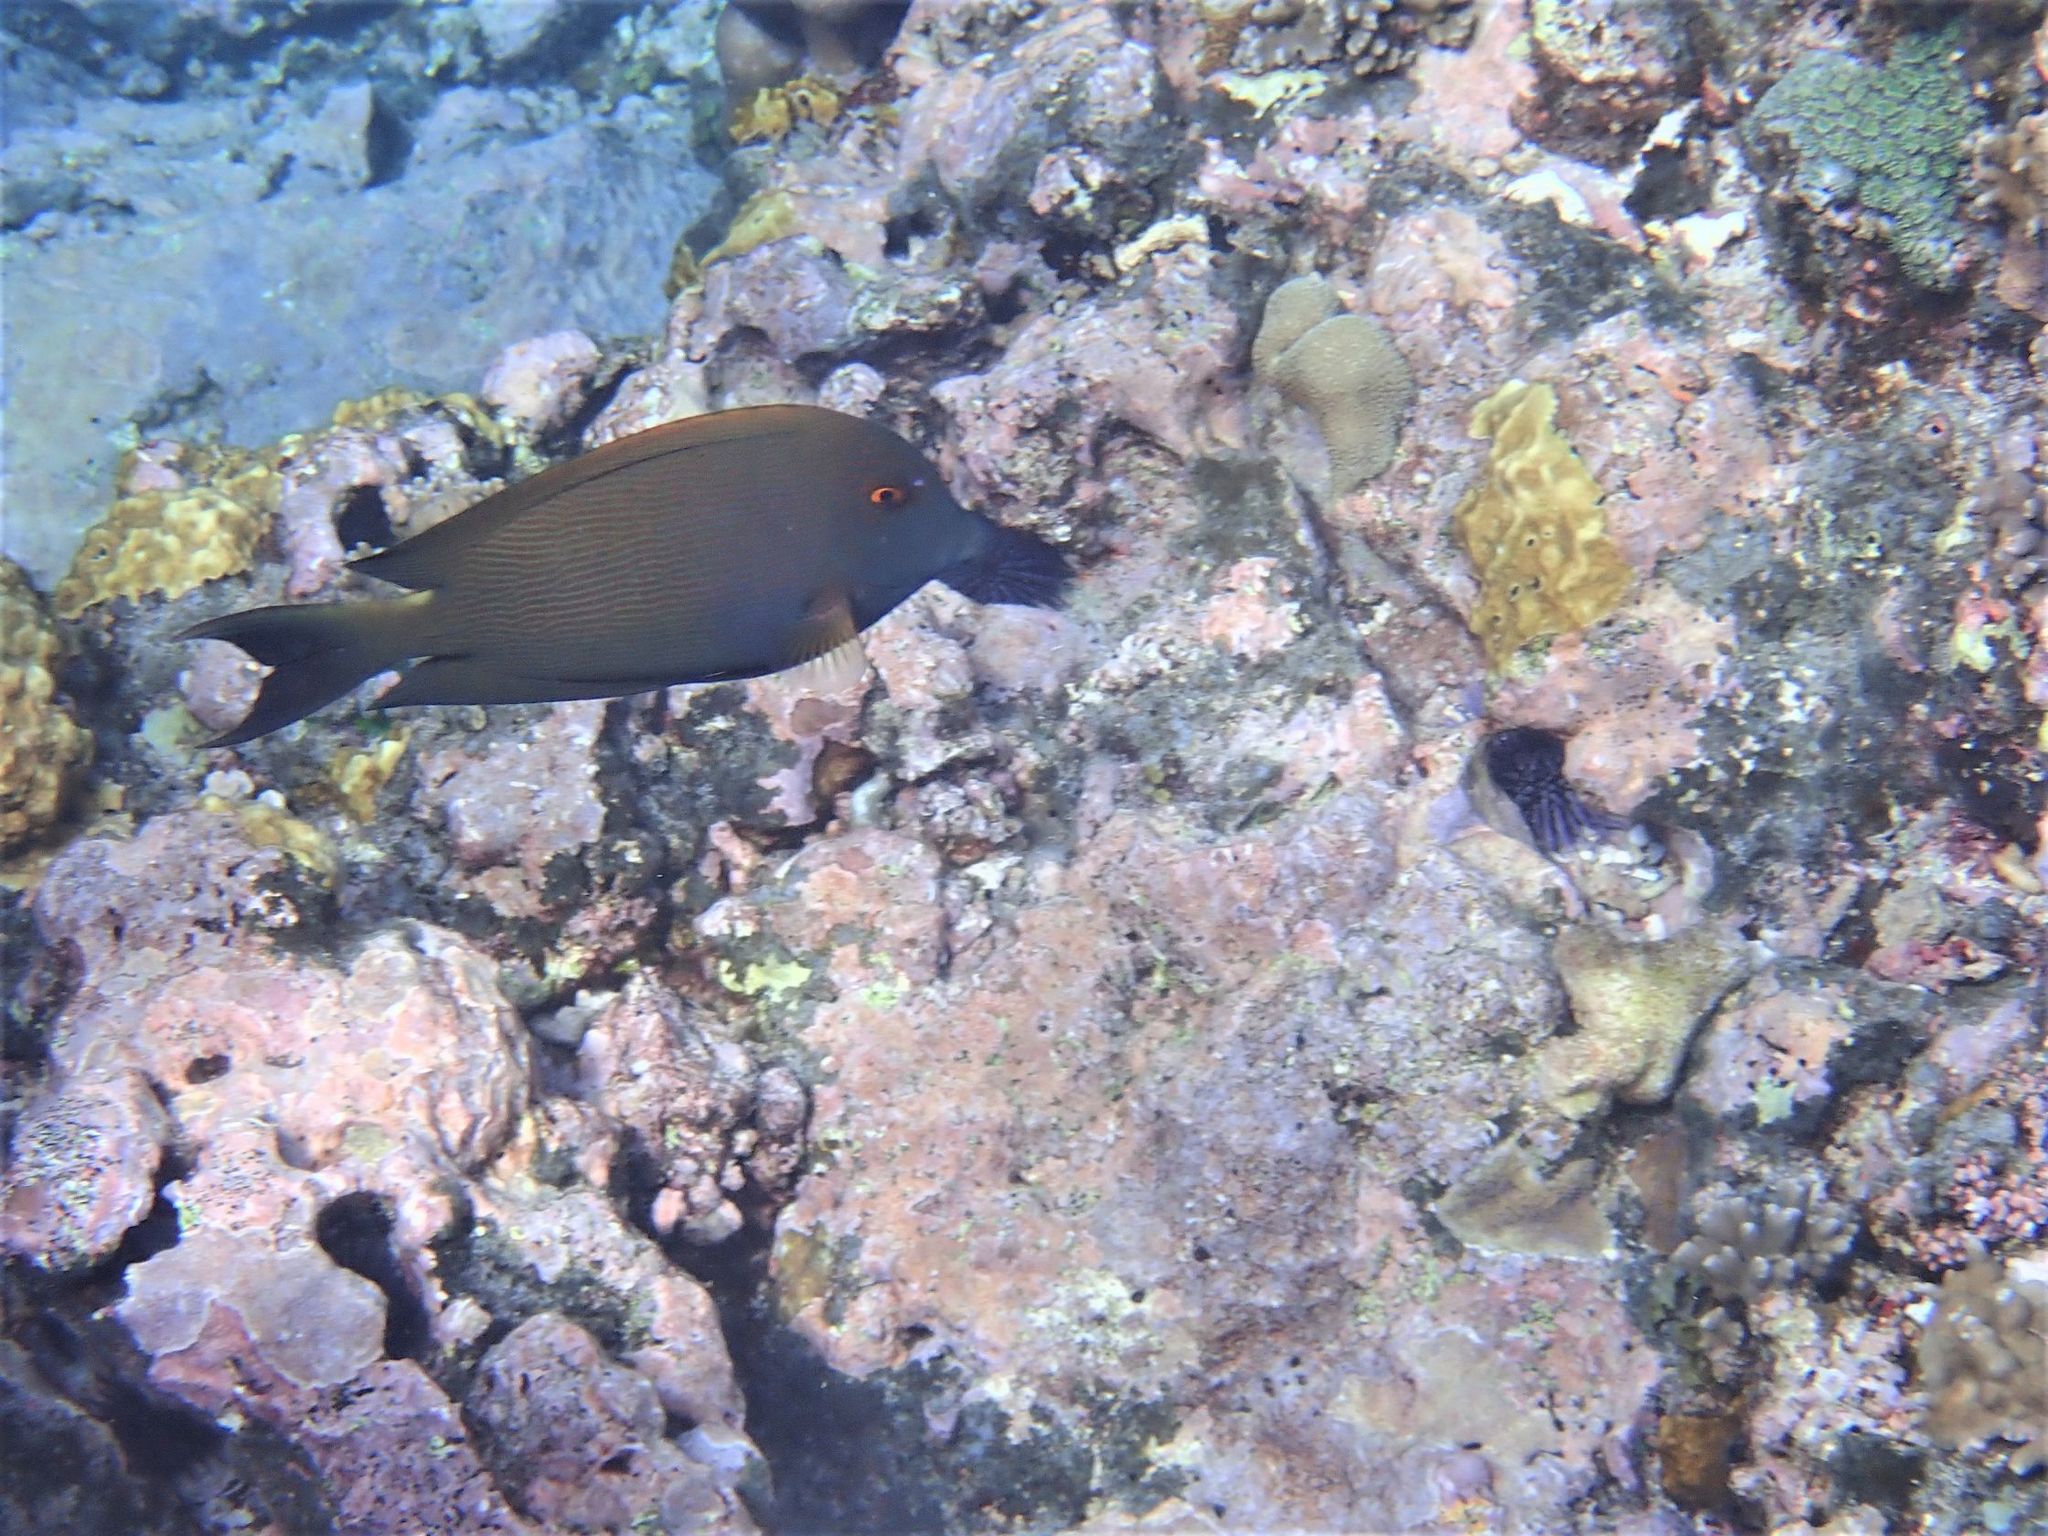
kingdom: Animalia
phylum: Chordata
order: Perciformes
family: Acanthuridae
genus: Ctenochaetus
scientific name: Ctenochaetus striatus
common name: Bristle-toothed surgeonfish
